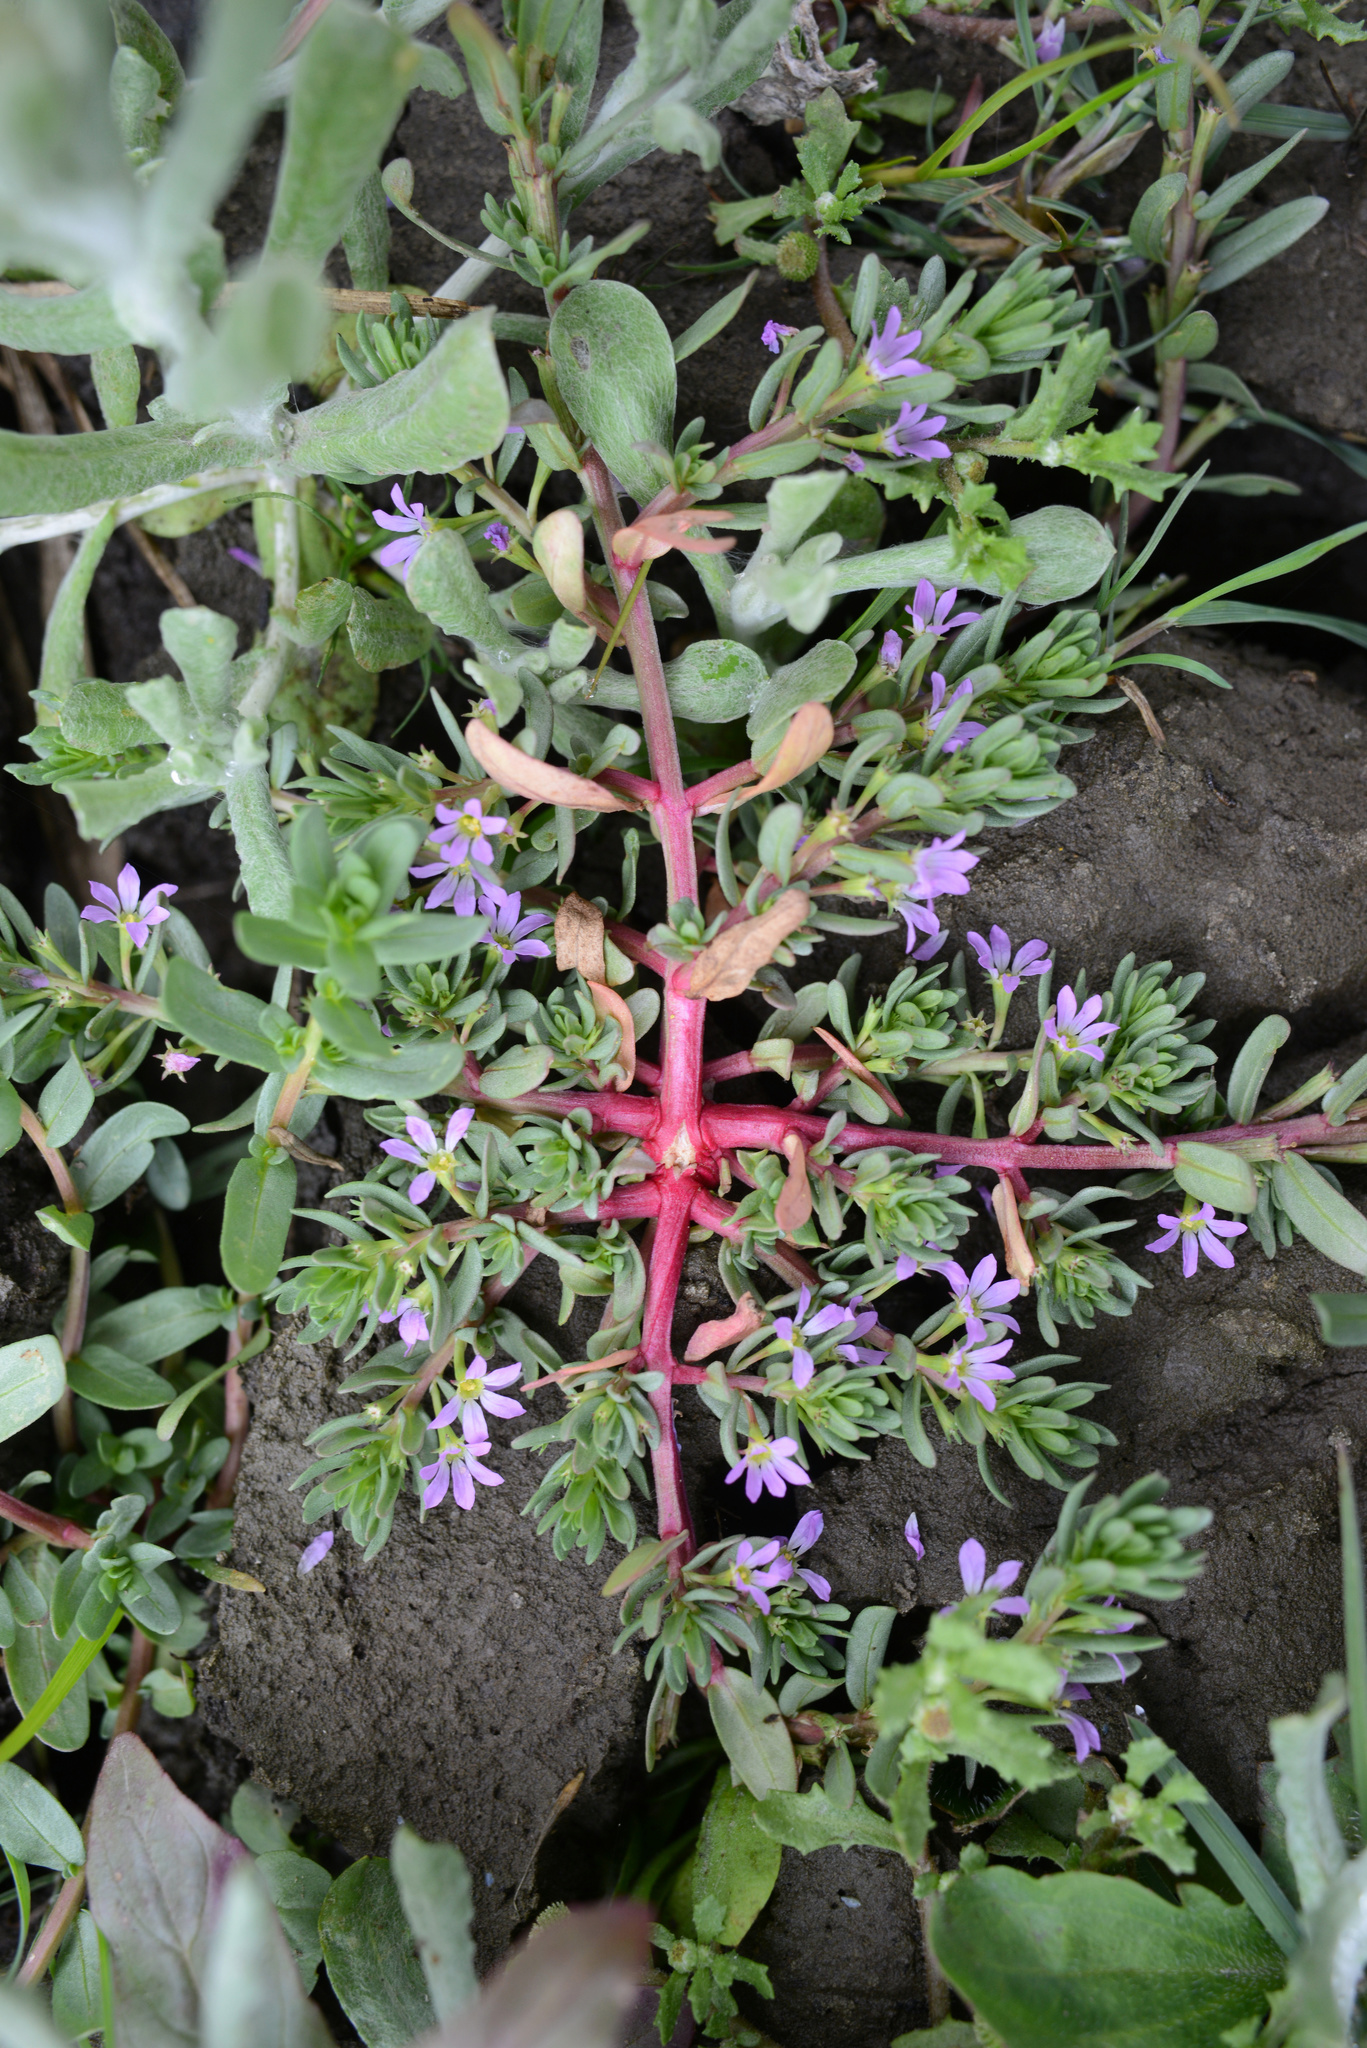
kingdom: Plantae
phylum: Tracheophyta
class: Magnoliopsida
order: Myrtales
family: Lythraceae
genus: Lythrum
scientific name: Lythrum hyssopifolia
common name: Grass-poly
